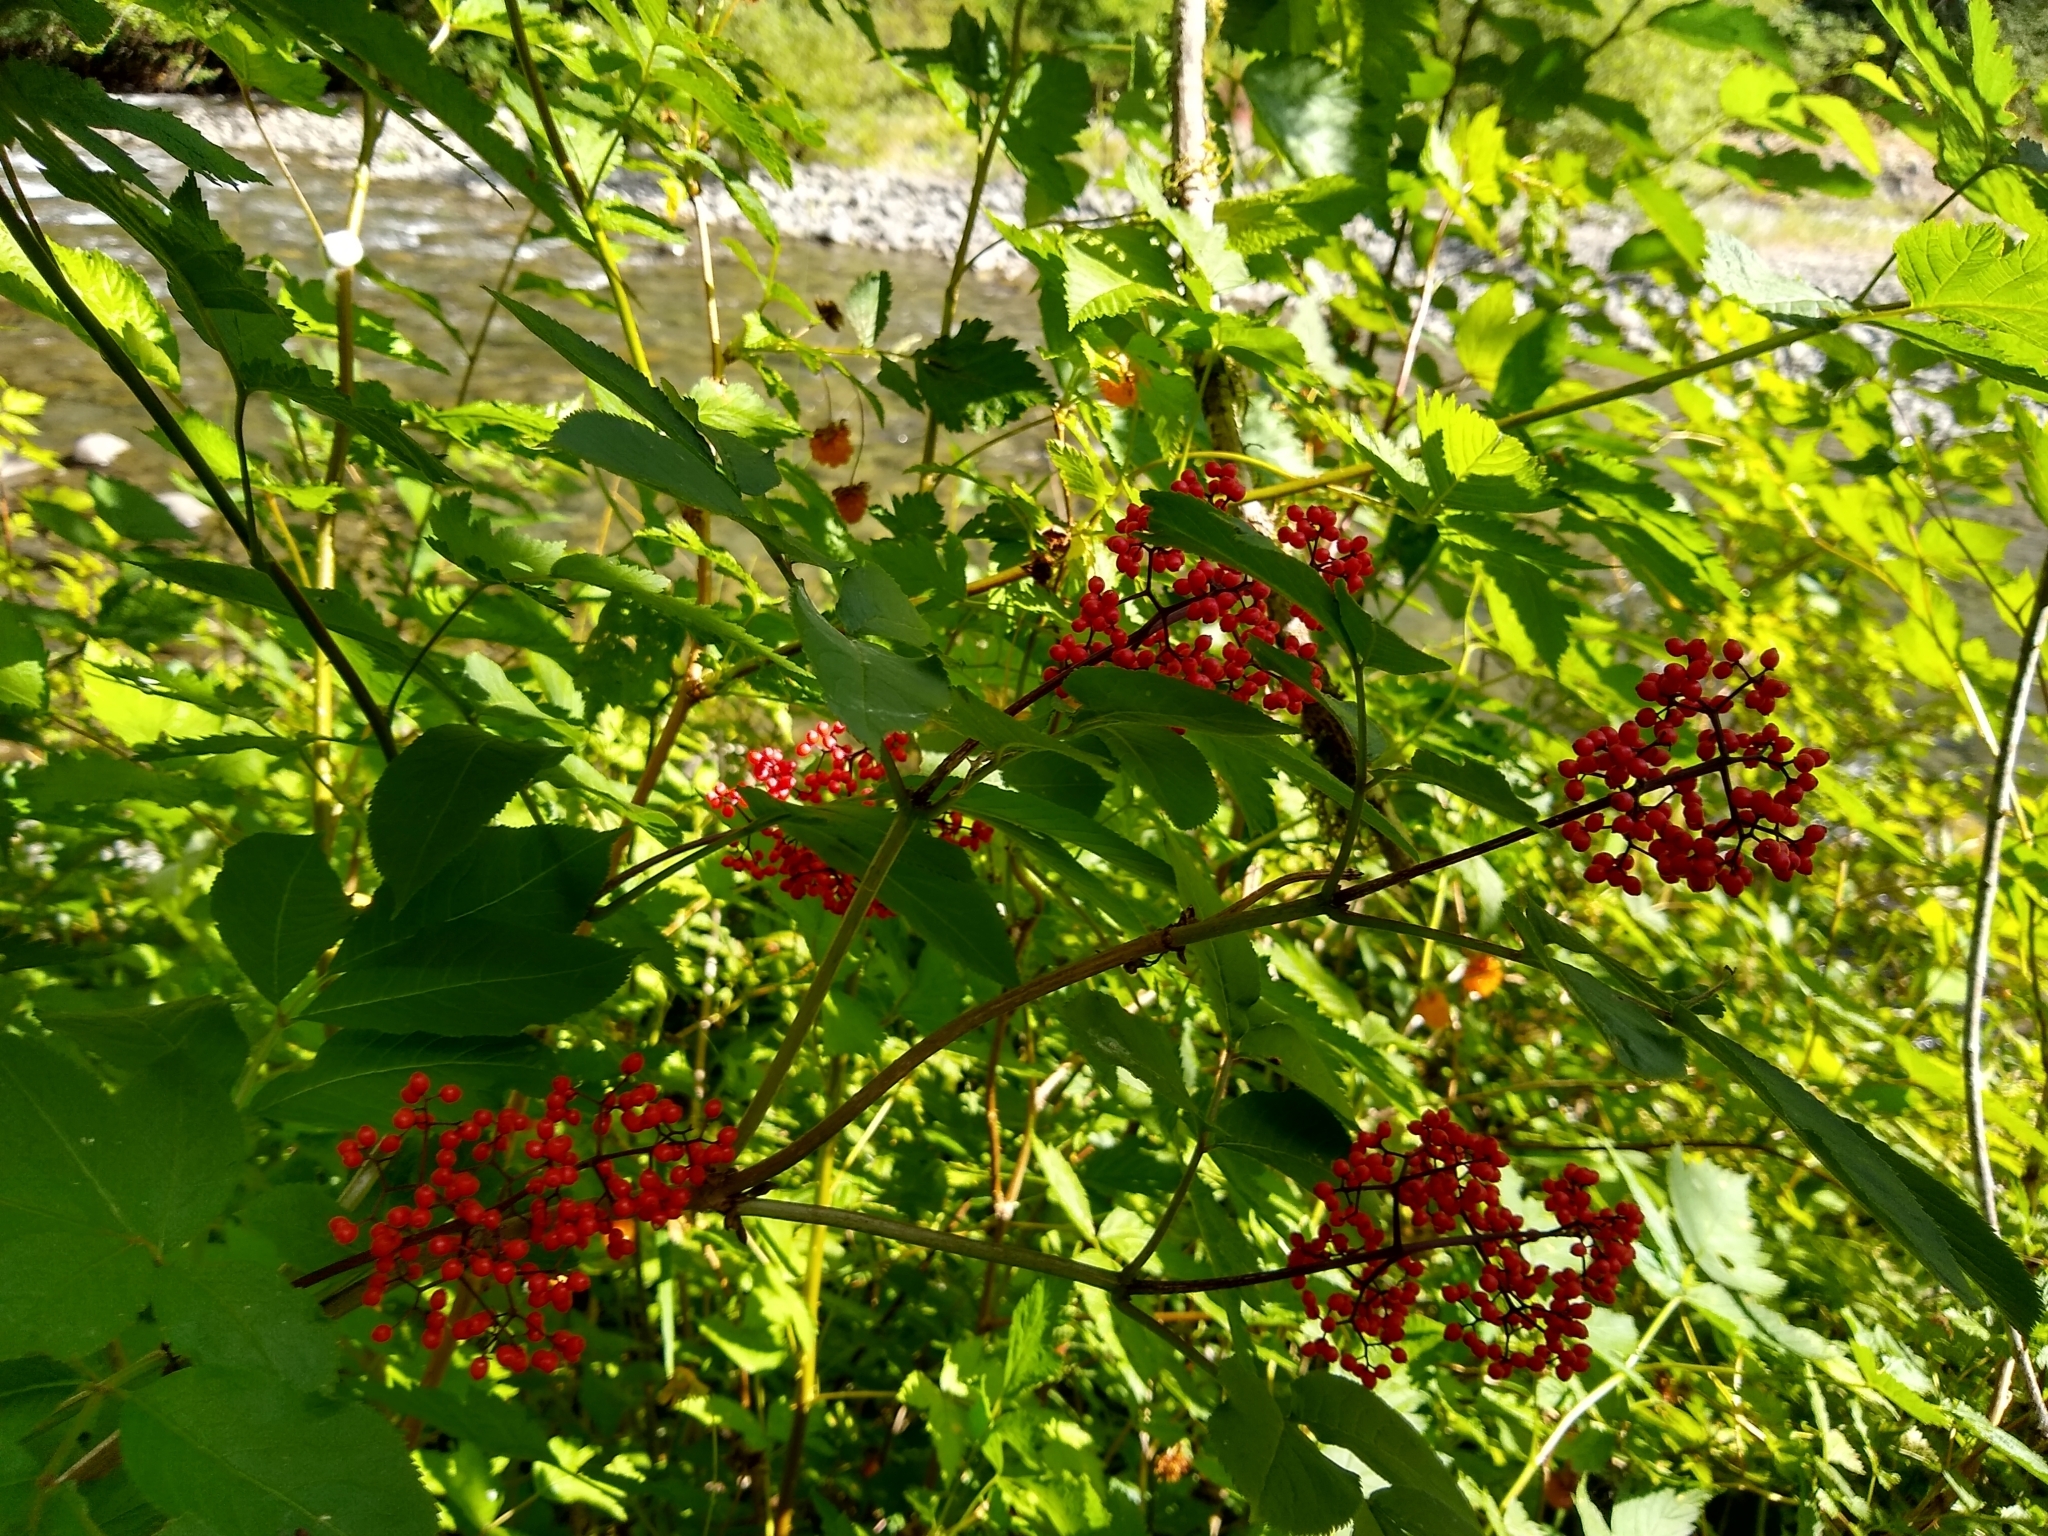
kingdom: Plantae
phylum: Tracheophyta
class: Magnoliopsida
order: Dipsacales
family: Viburnaceae
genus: Sambucus
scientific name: Sambucus racemosa
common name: Red-berried elder
